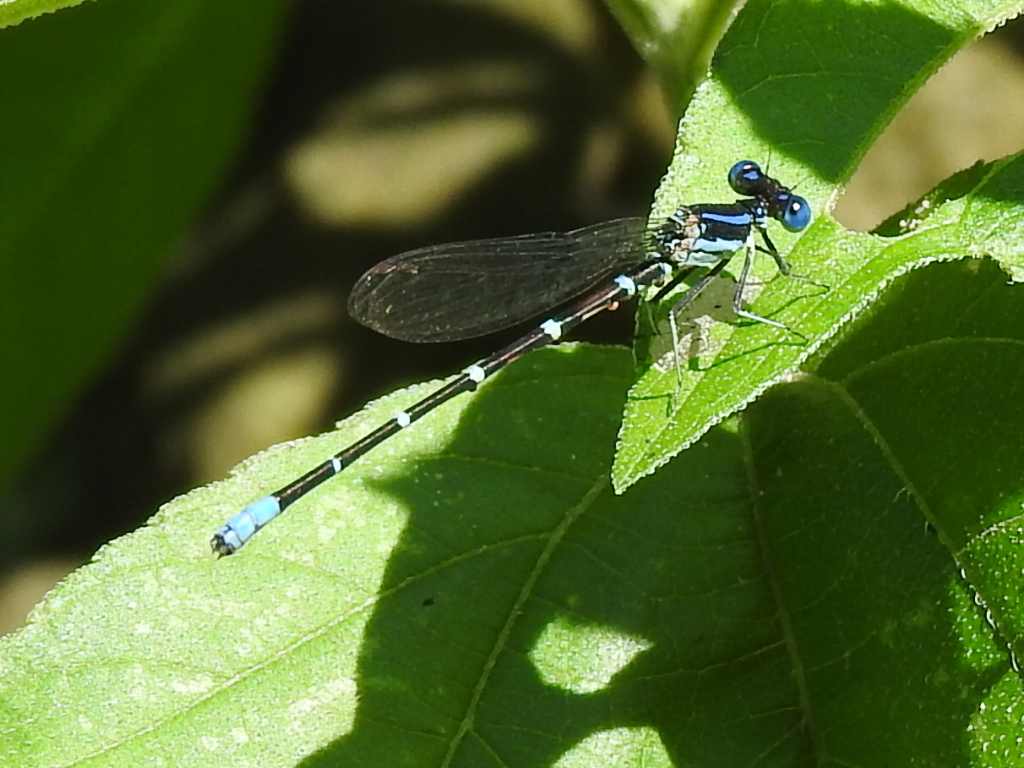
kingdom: Animalia
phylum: Arthropoda
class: Insecta
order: Odonata
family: Coenagrionidae
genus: Argia
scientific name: Argia sedula
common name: Blue-ringed dancer
